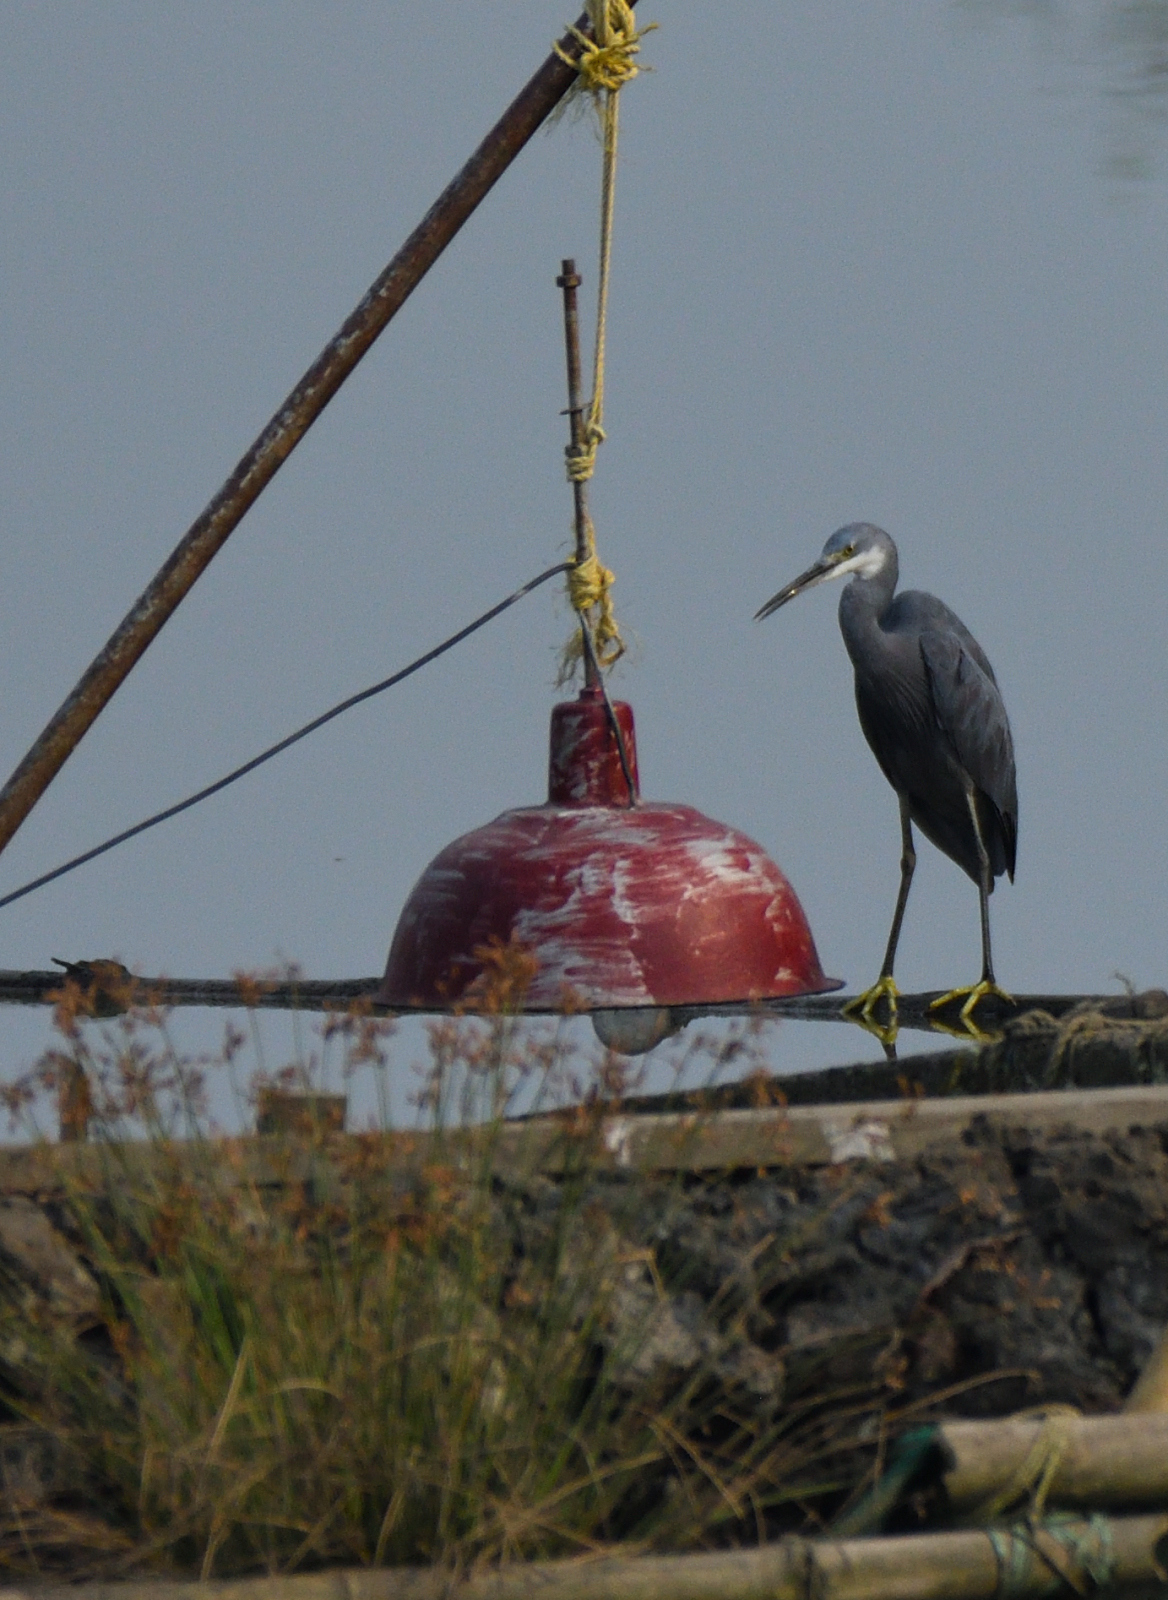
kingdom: Animalia
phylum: Chordata
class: Aves
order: Pelecaniformes
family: Ardeidae
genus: Egretta
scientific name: Egretta gularis
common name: Western reef-heron
